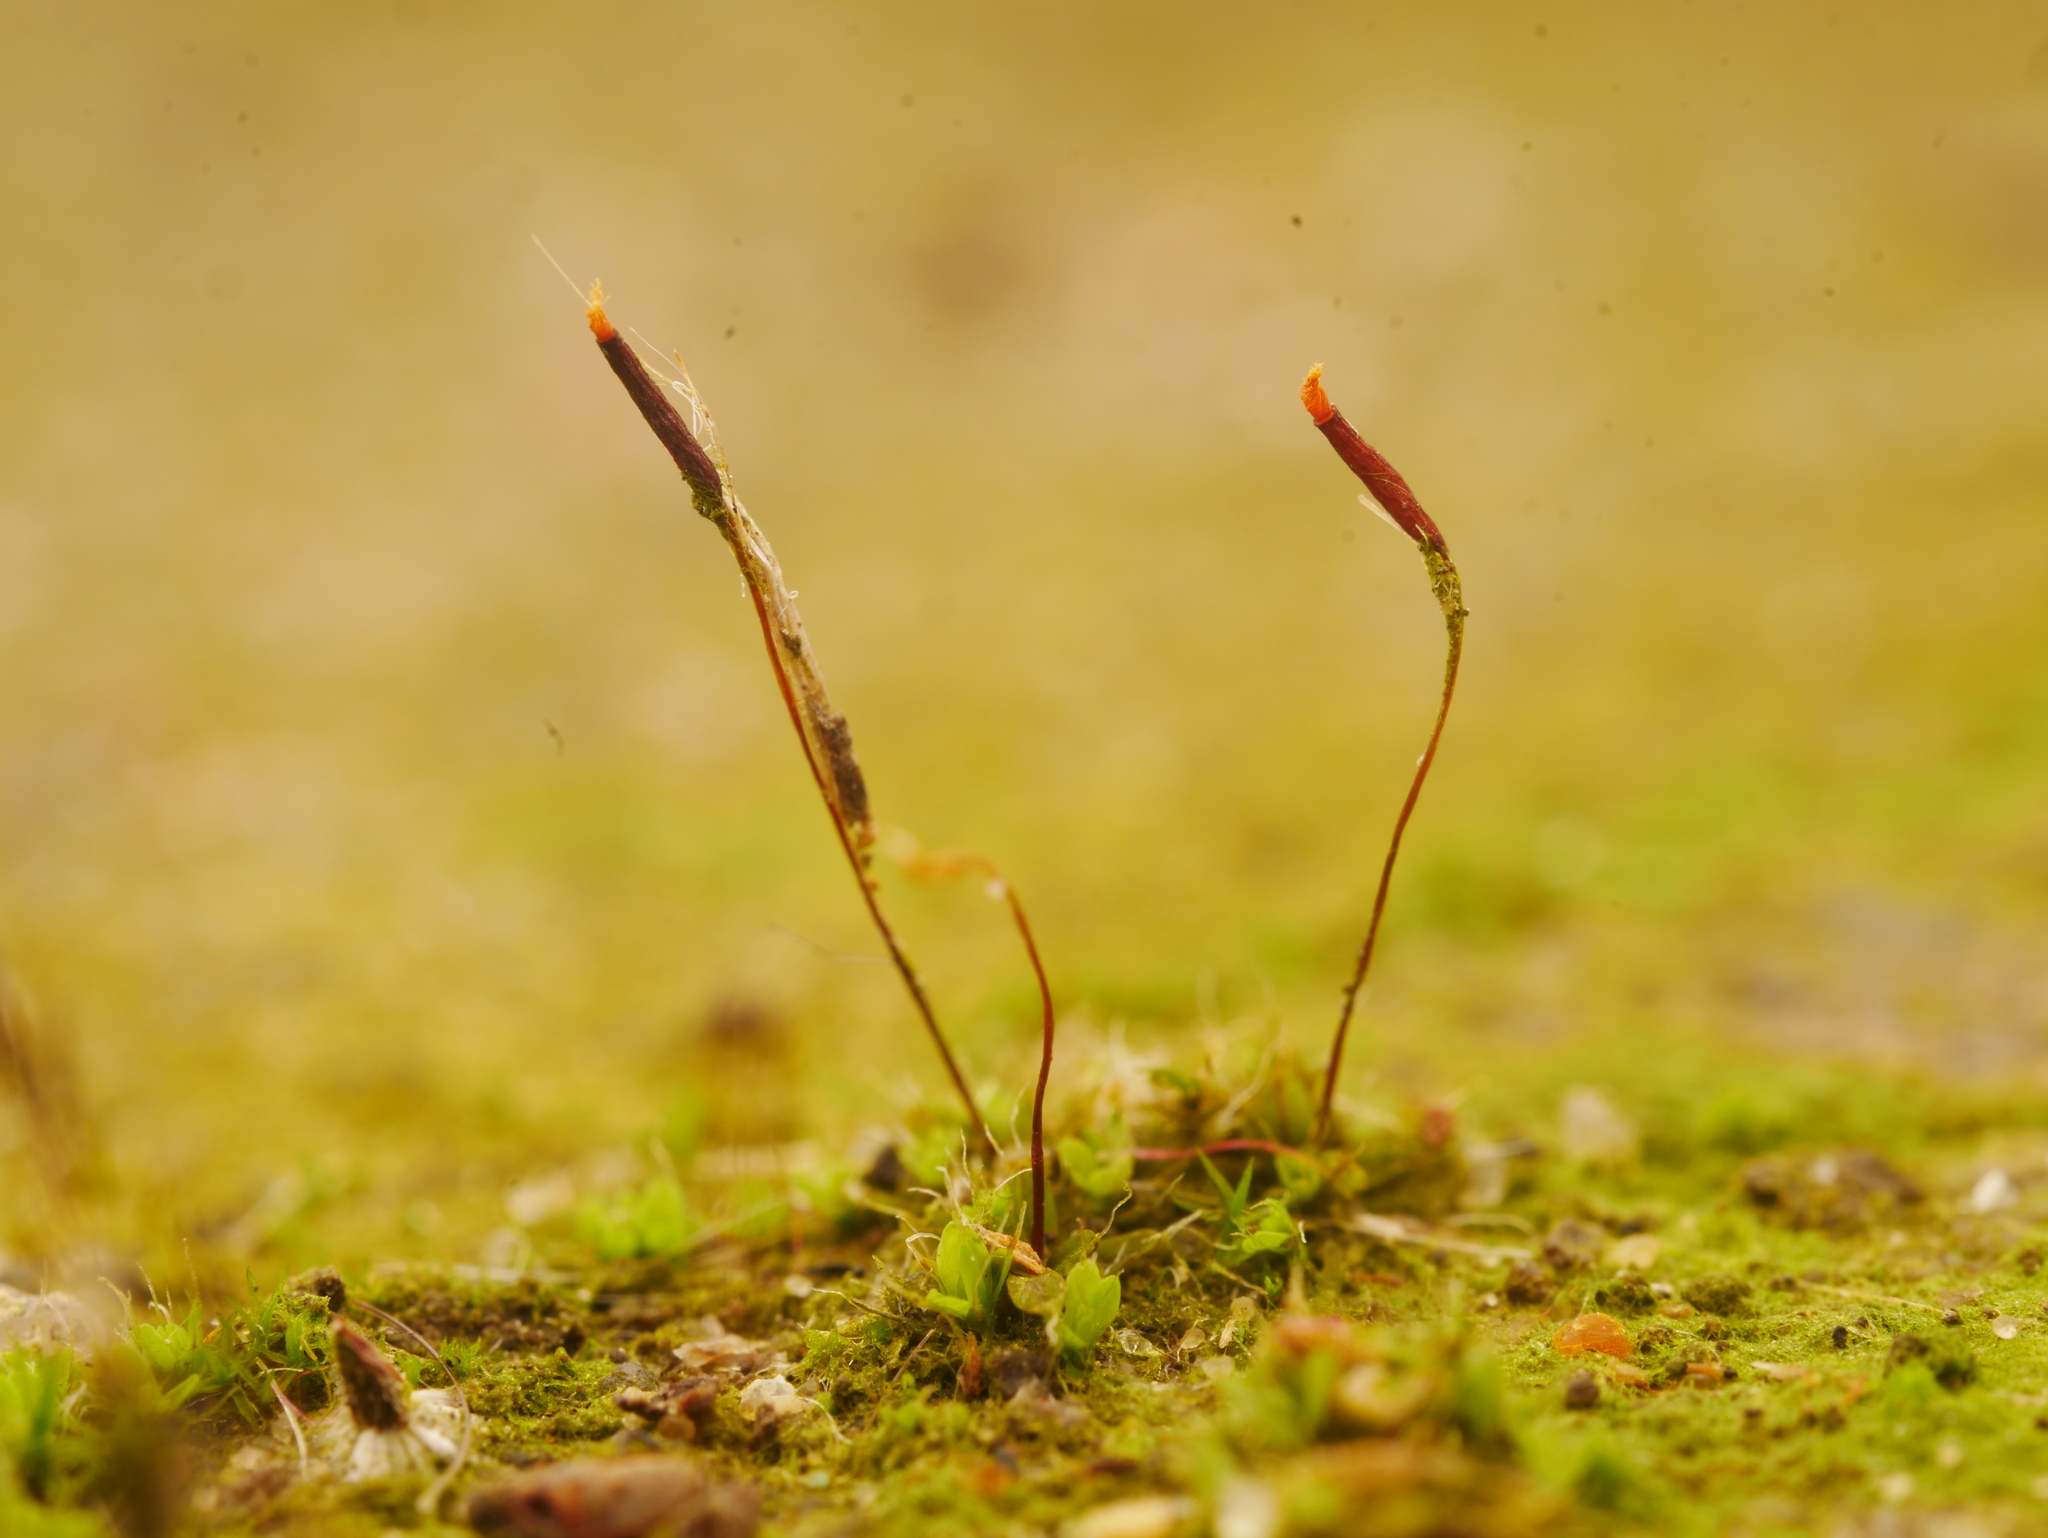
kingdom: Plantae
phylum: Bryophyta
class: Bryopsida
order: Pottiales
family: Pottiaceae
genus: Tortula
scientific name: Tortula muralis
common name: Wall screw-moss
